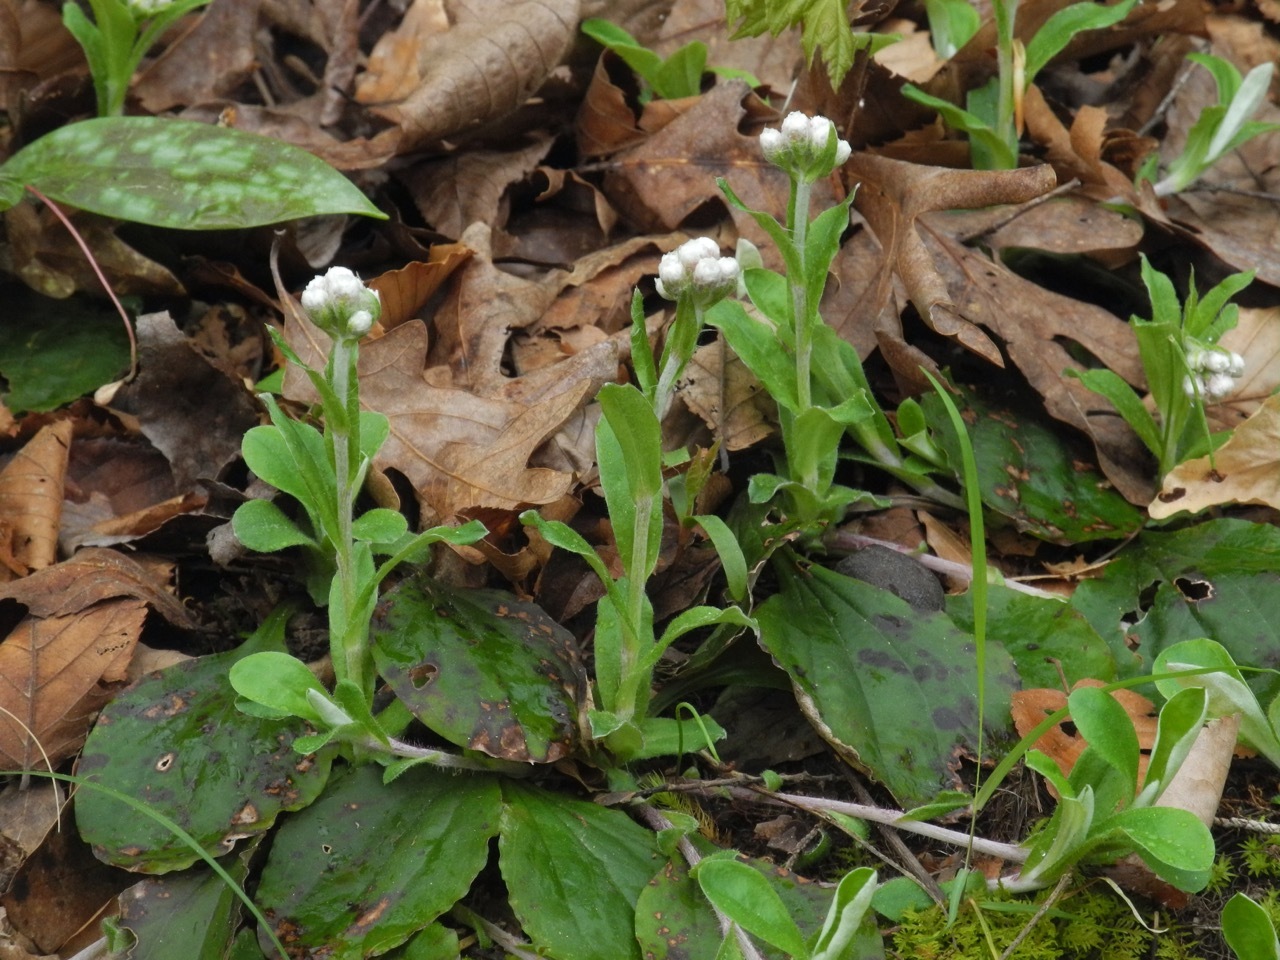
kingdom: Plantae
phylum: Tracheophyta
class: Magnoliopsida
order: Asterales
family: Asteraceae
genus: Antennaria
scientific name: Antennaria plantaginifolia
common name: Plantain-leaved pussytoes
